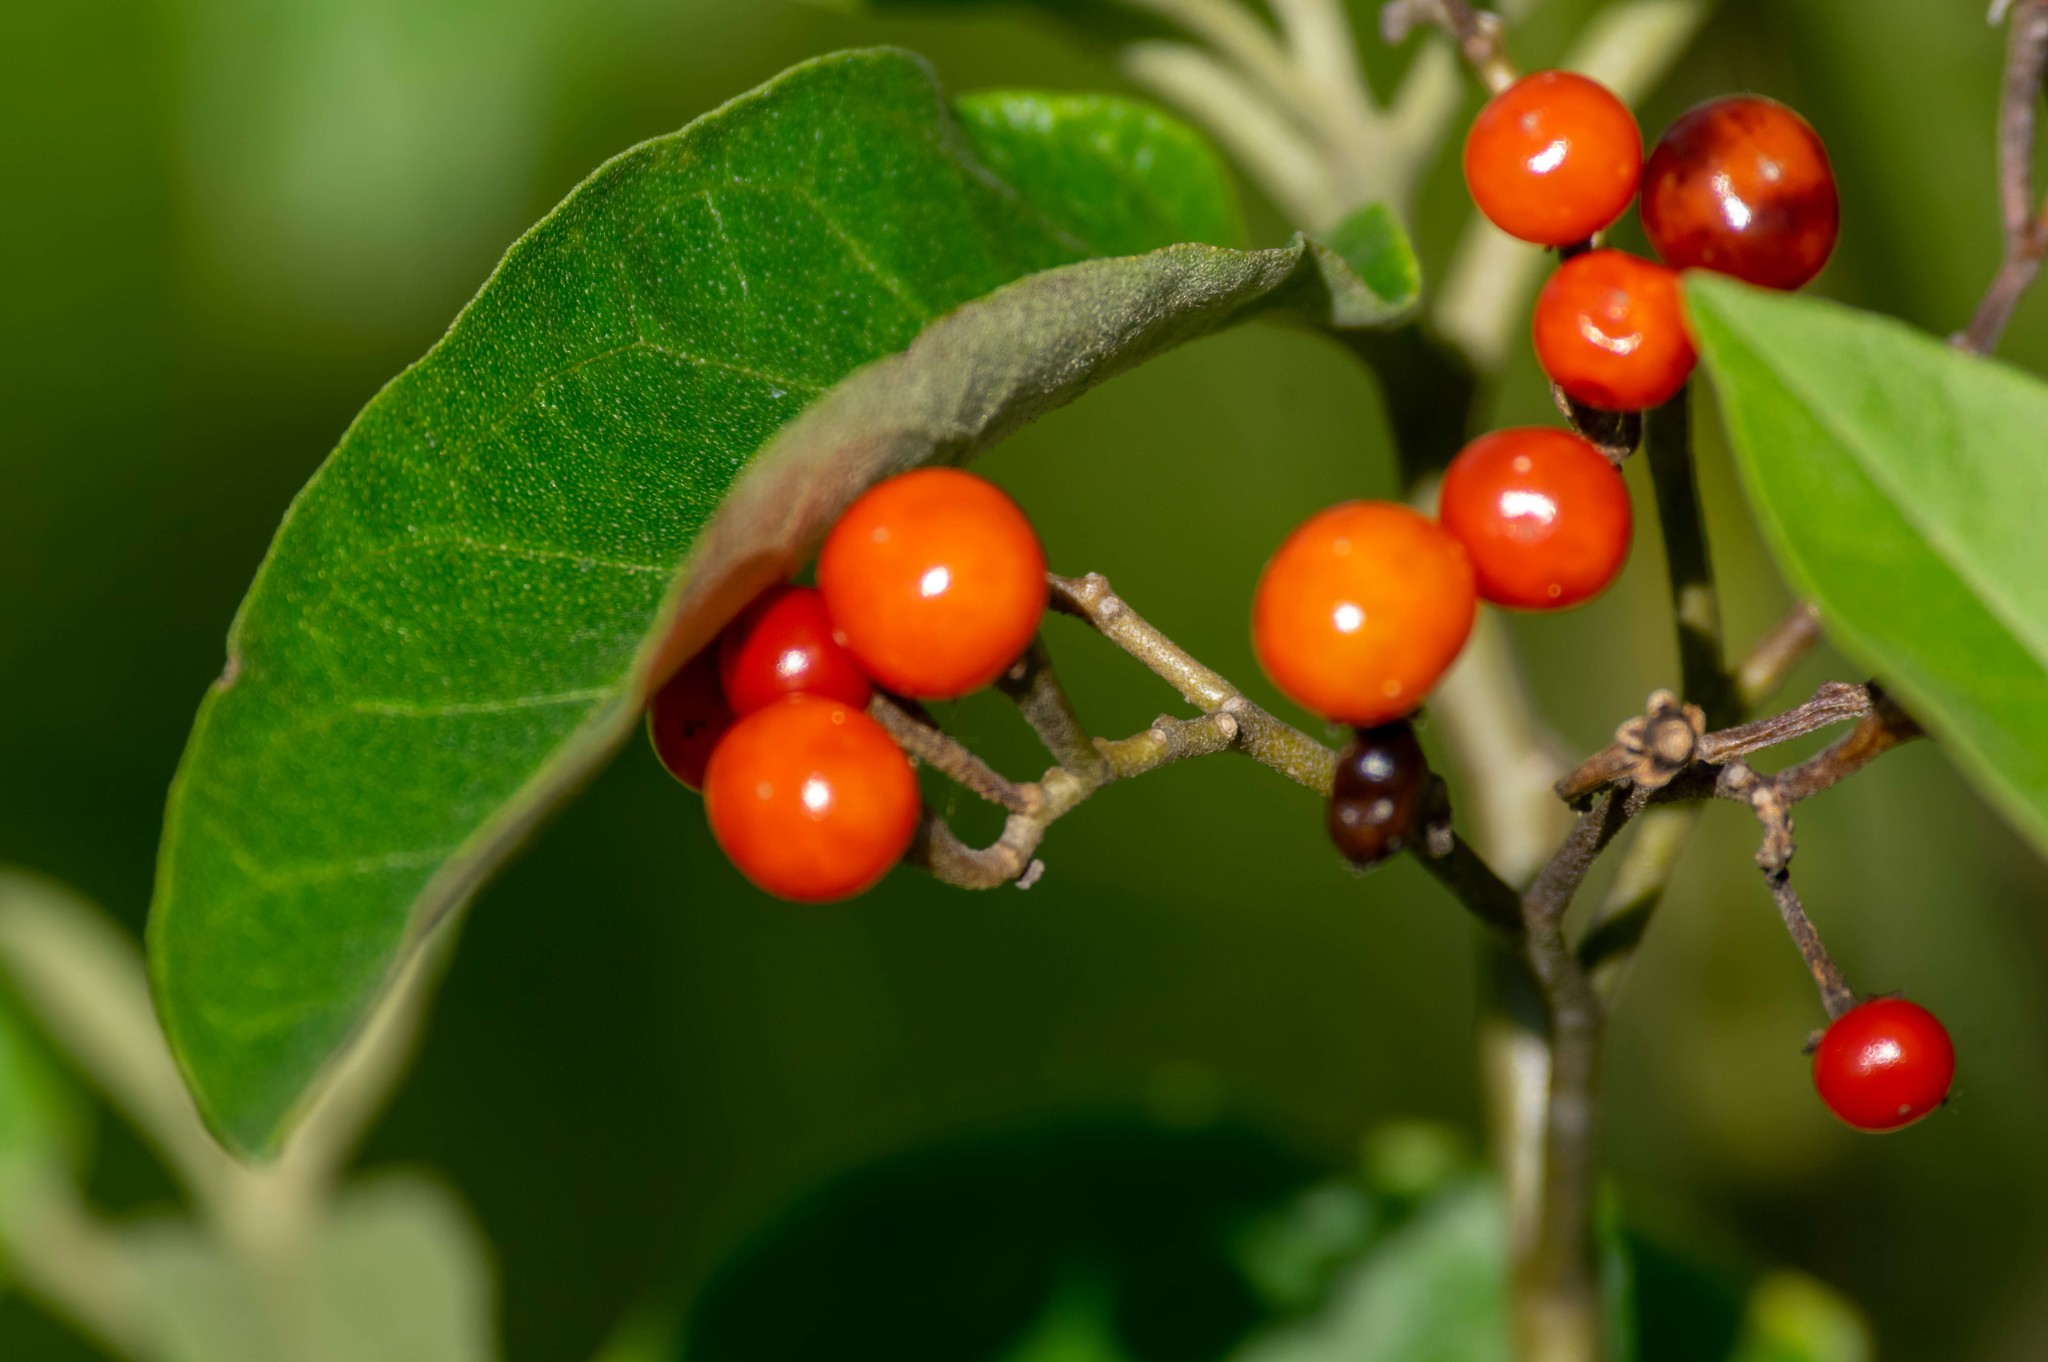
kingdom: Plantae
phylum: Tracheophyta
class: Magnoliopsida
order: Solanales
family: Solanaceae
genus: Solanum
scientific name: Solanum donianum
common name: Mullein nightshade
